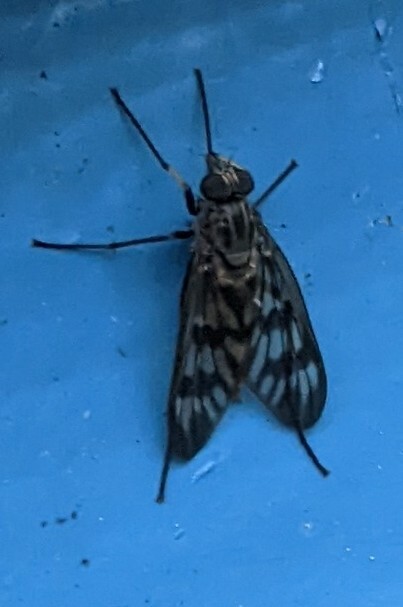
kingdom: Animalia
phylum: Arthropoda
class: Insecta
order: Diptera
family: Rhagionidae
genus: Rhagio
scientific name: Rhagio mystaceus
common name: Common snipe fly
